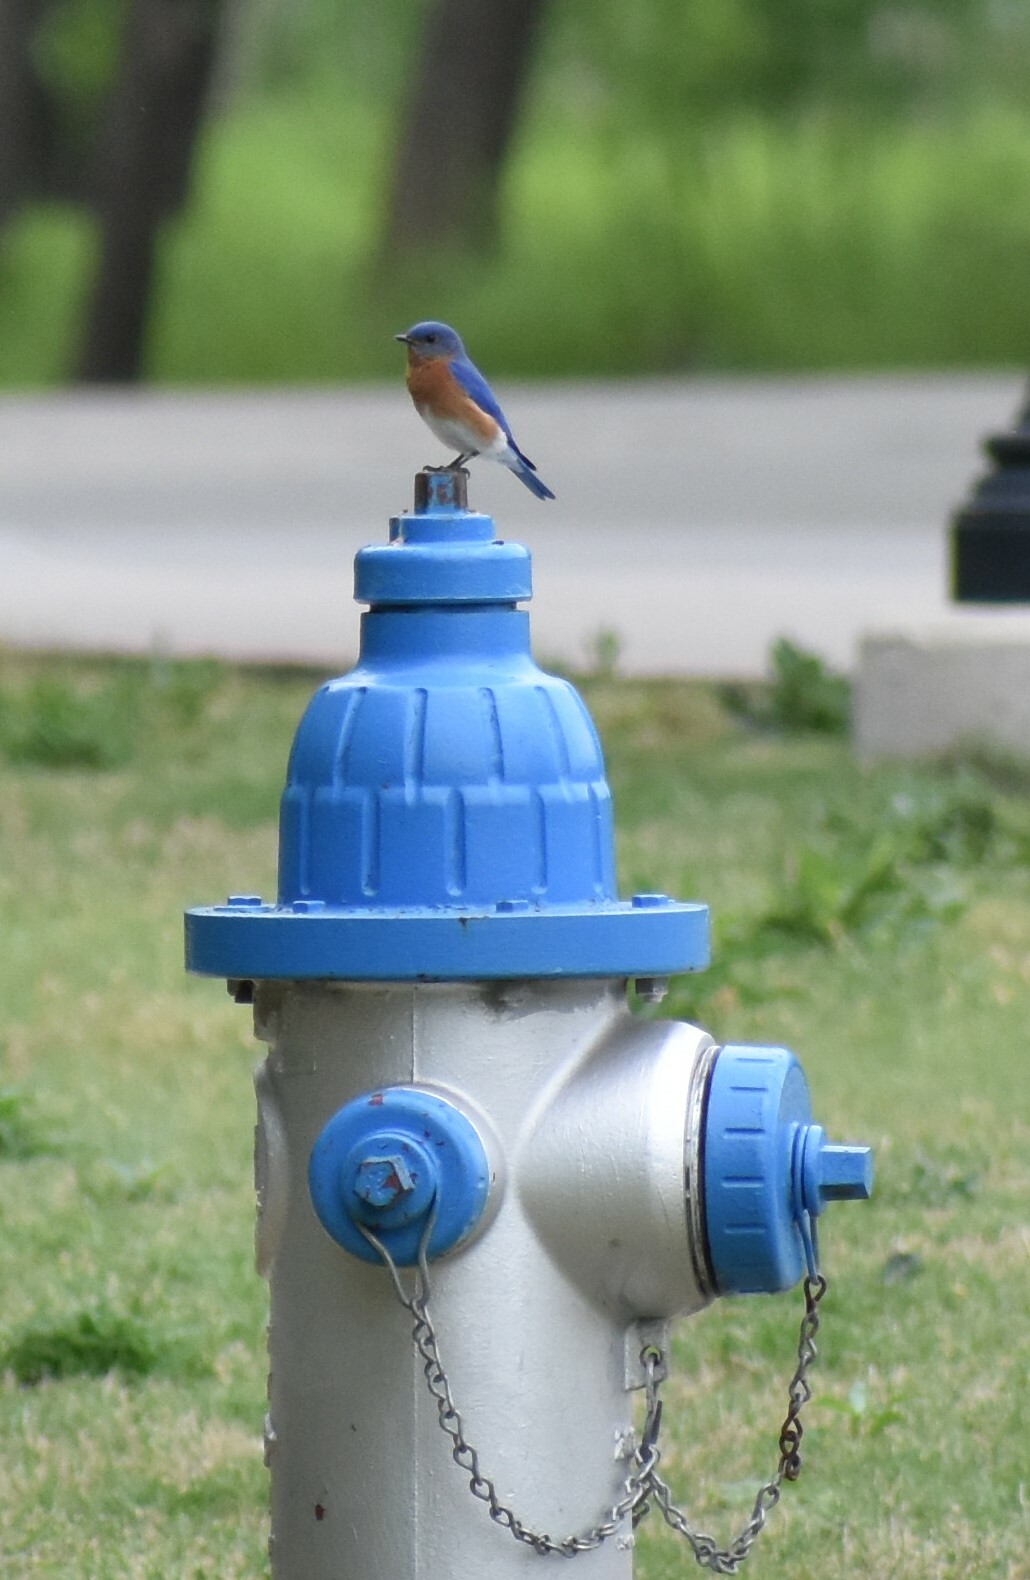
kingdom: Animalia
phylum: Chordata
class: Aves
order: Passeriformes
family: Turdidae
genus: Sialia
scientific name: Sialia sialis
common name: Eastern bluebird
